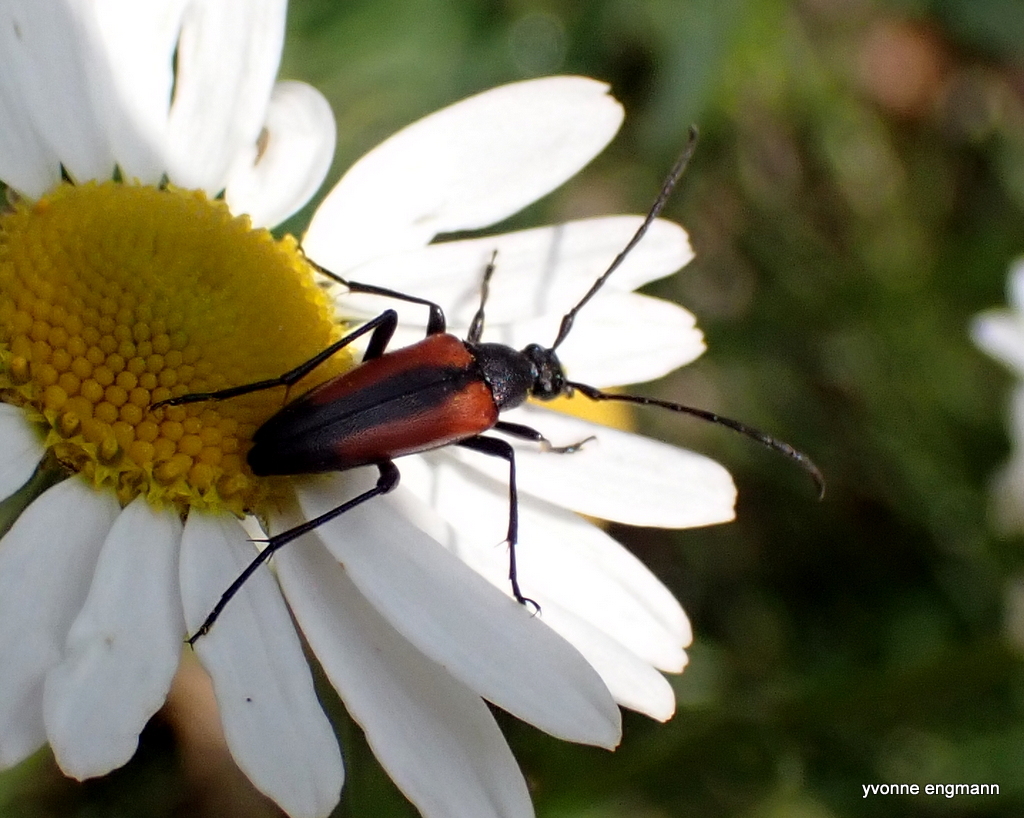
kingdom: Animalia
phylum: Arthropoda
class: Insecta
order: Coleoptera
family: Cerambycidae
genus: Stenurella
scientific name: Stenurella melanura
